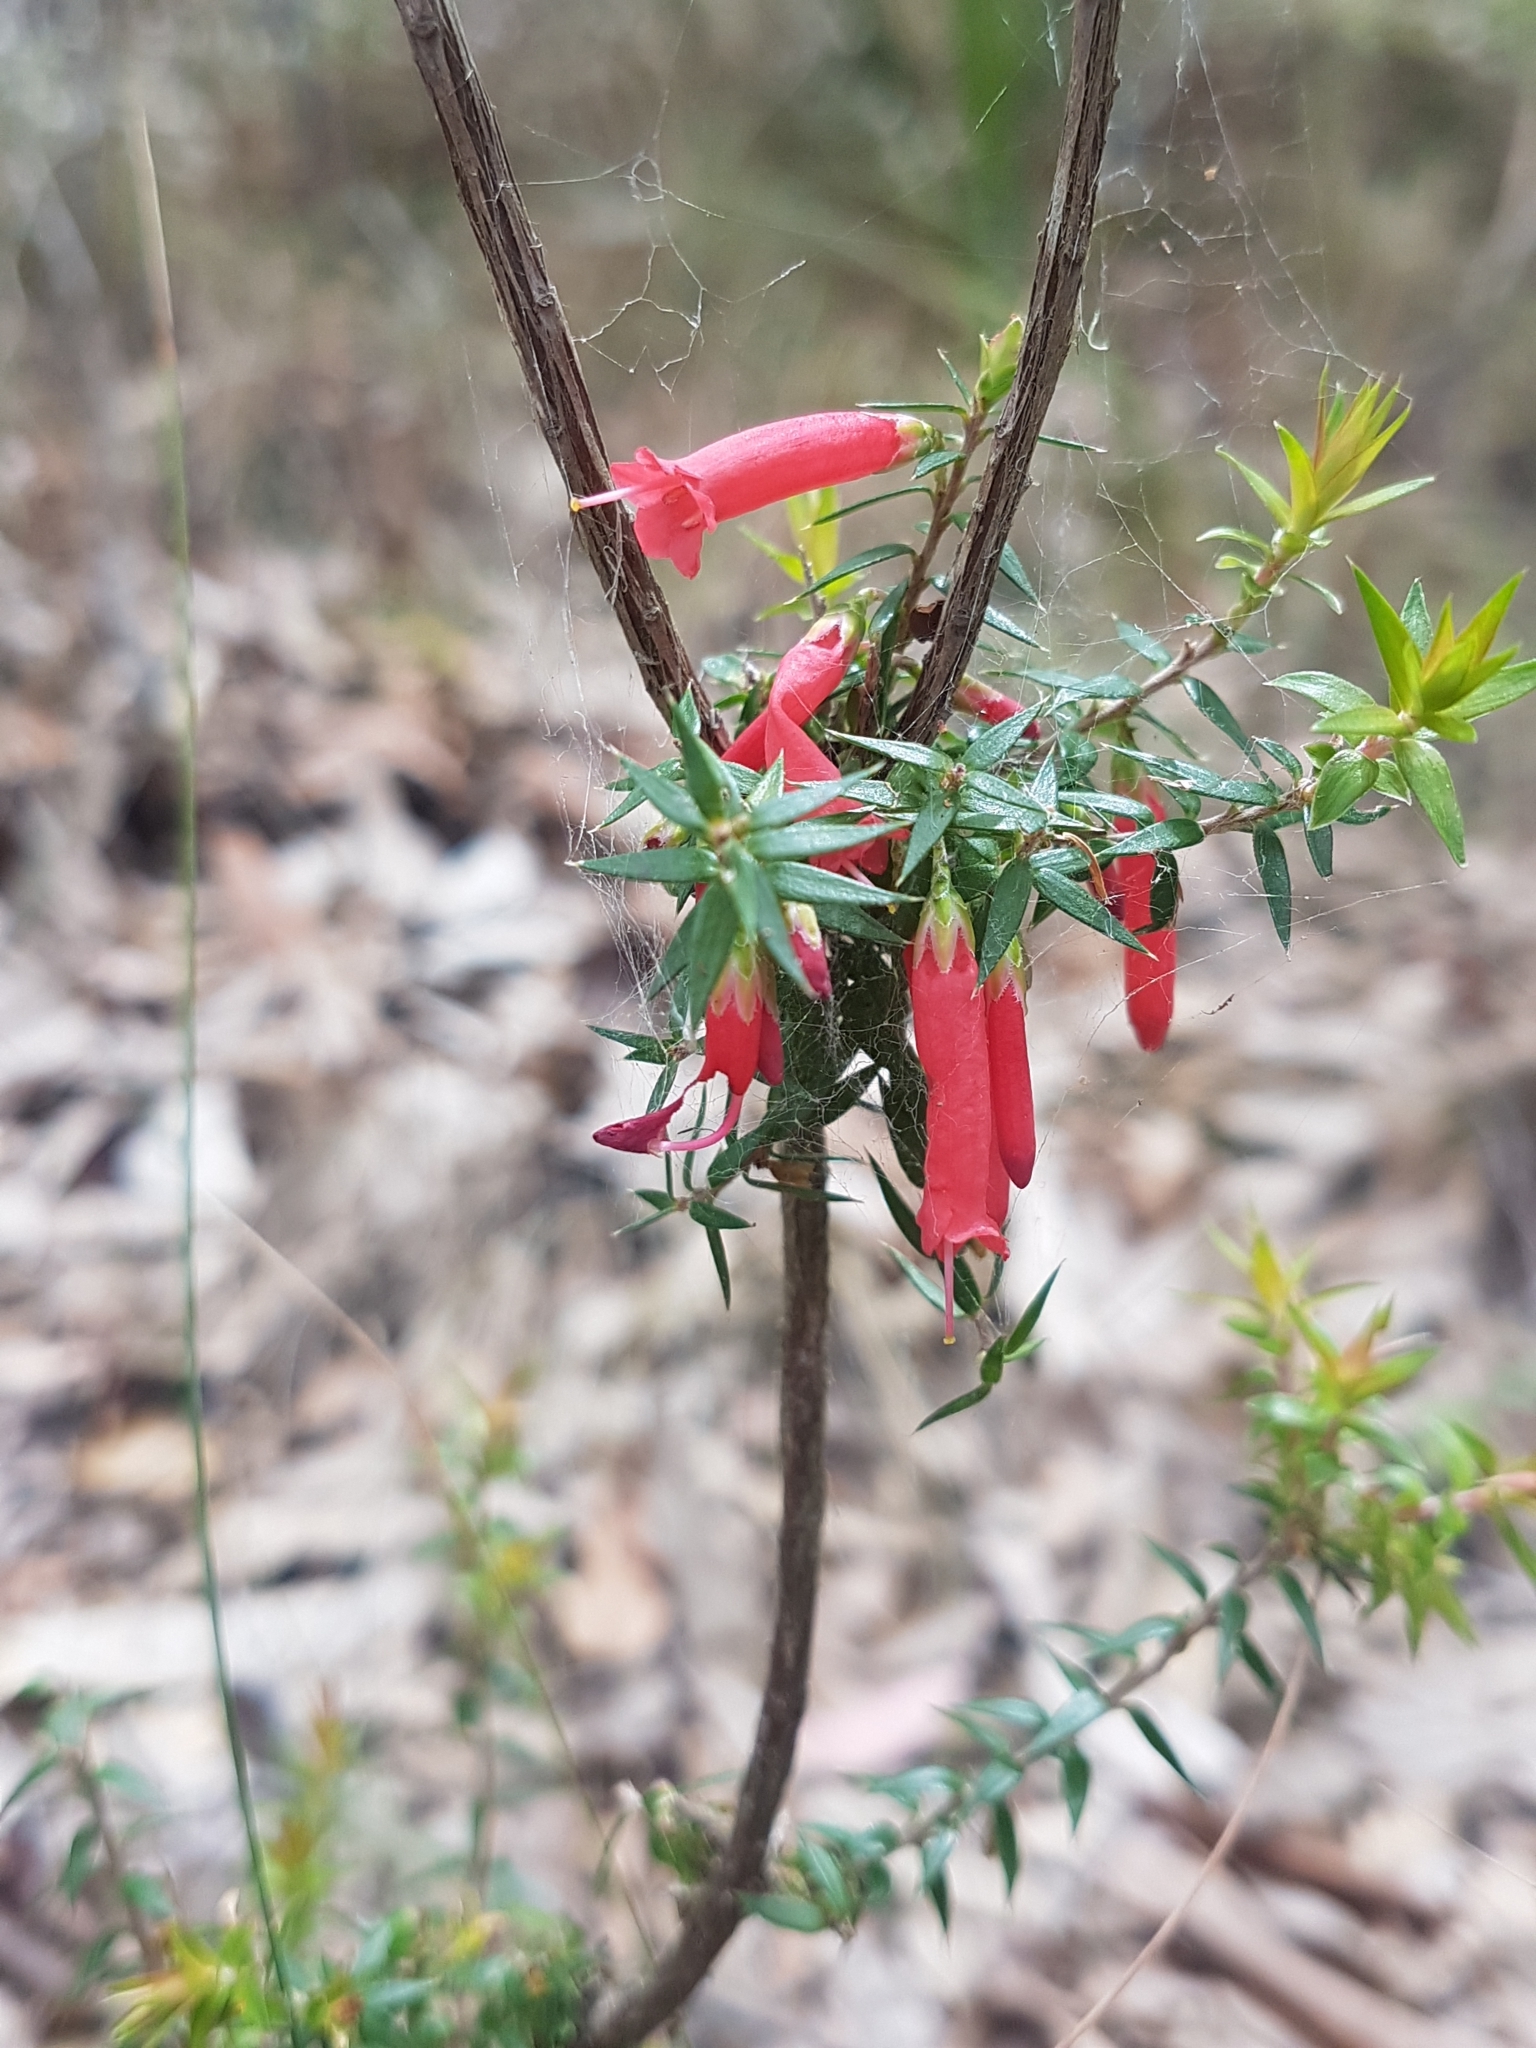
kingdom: Plantae
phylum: Tracheophyta
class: Magnoliopsida
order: Ericales
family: Ericaceae
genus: Epacris
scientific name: Epacris impressa
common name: Common-heath
